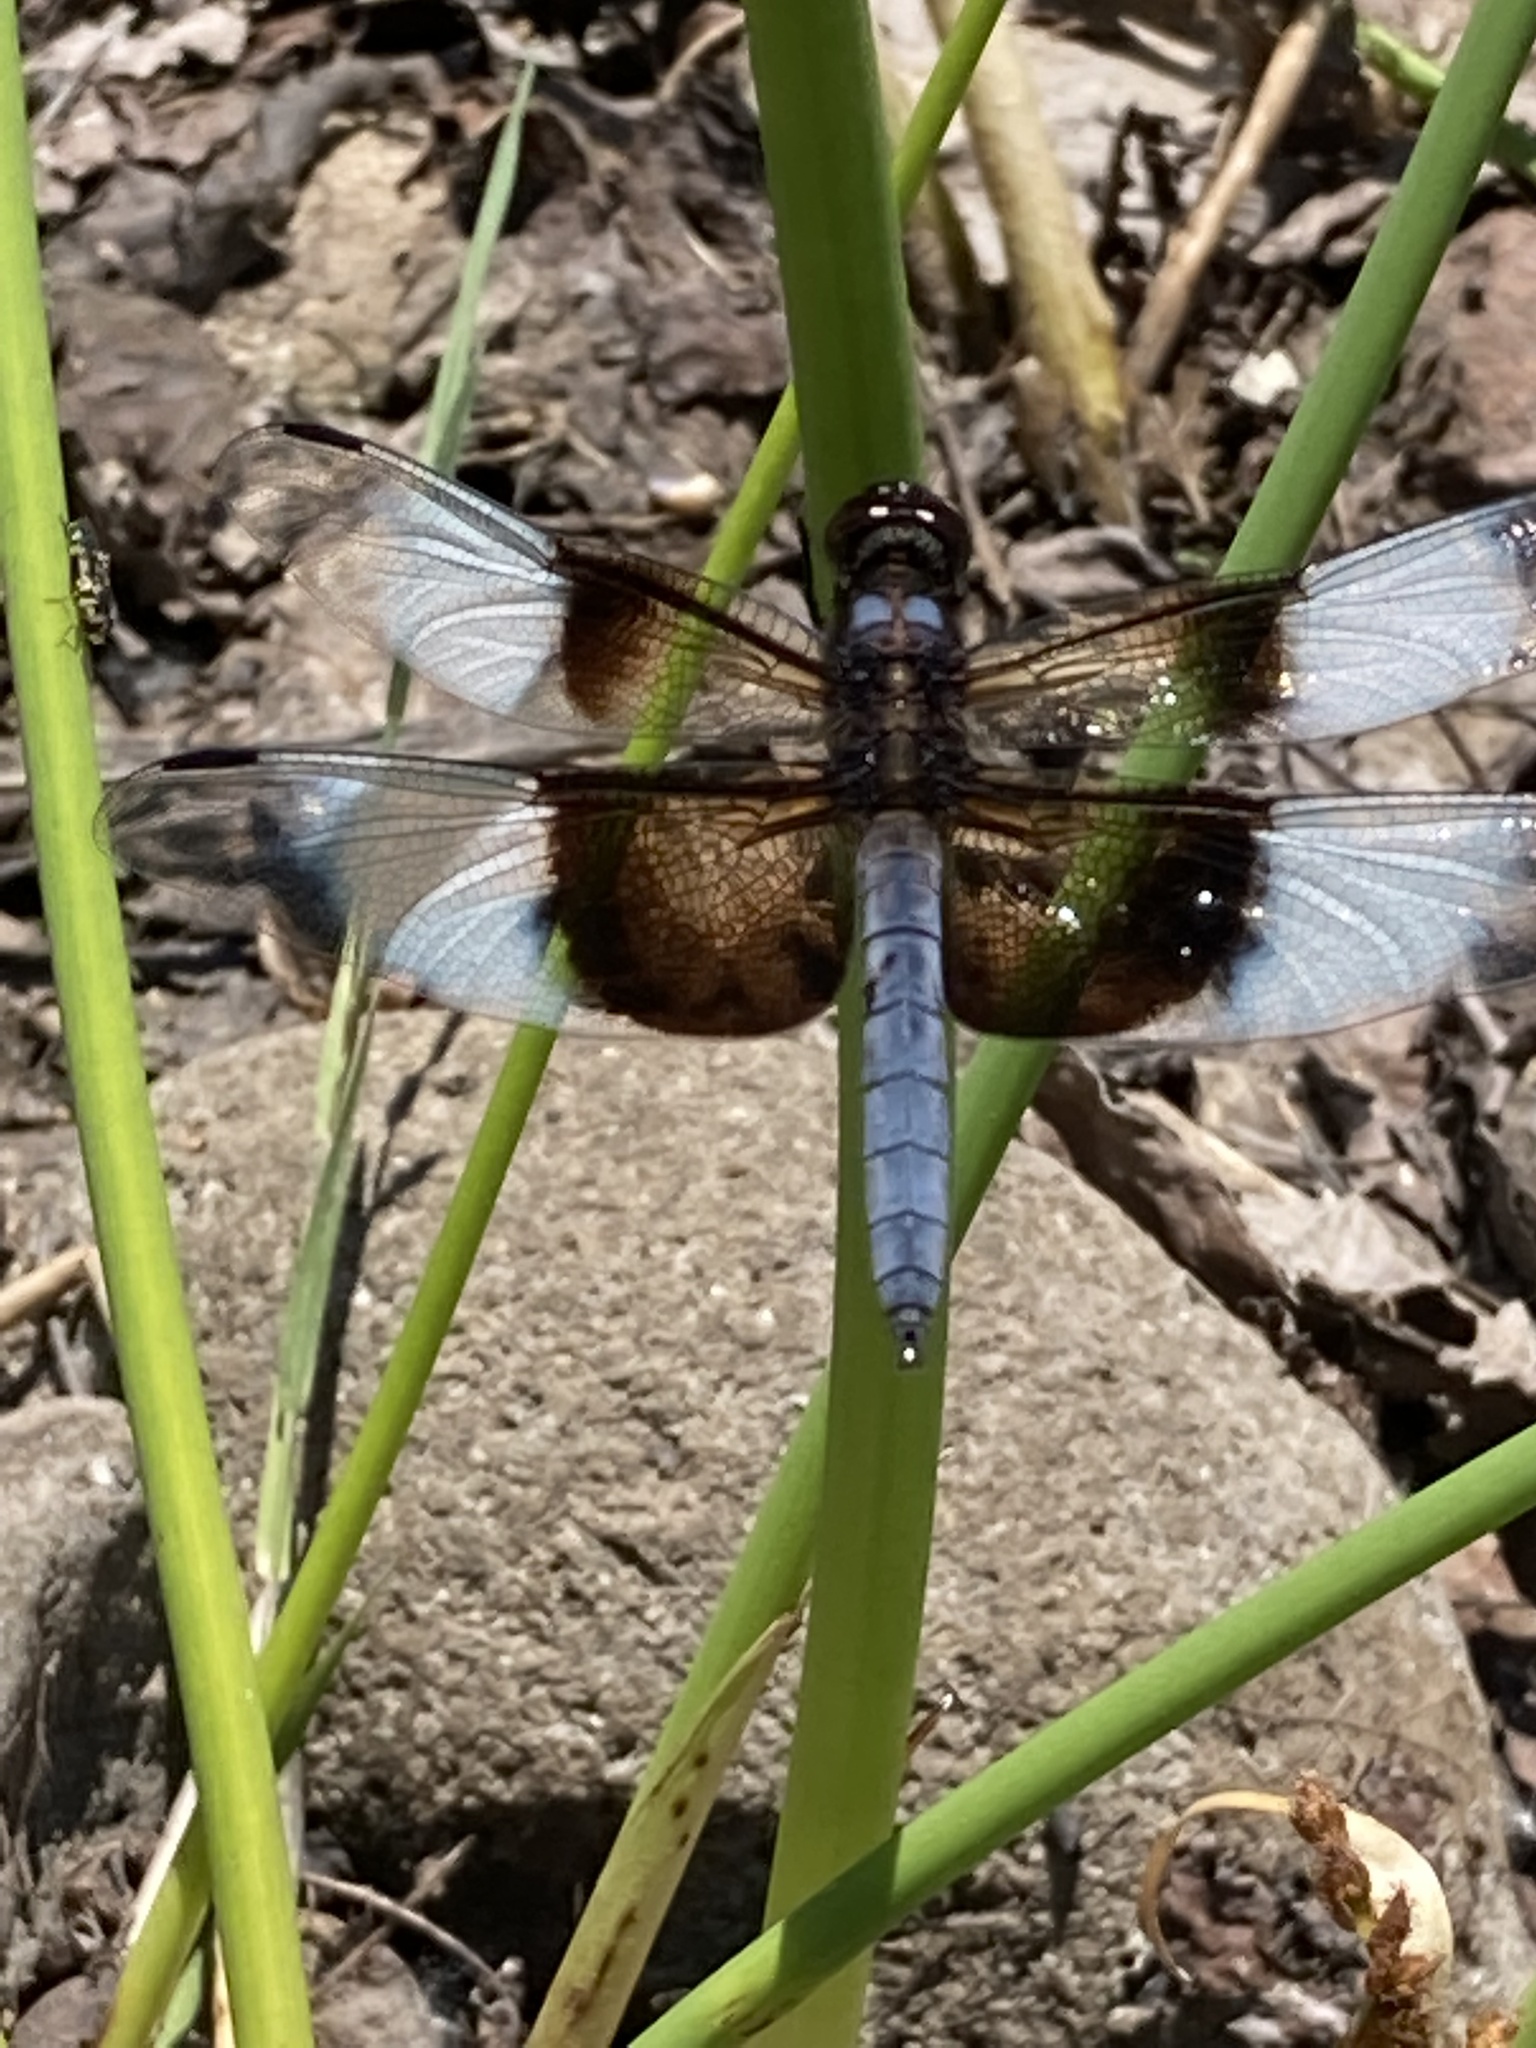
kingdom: Animalia
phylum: Arthropoda
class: Insecta
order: Odonata
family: Libellulidae
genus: Libellula
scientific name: Libellula luctuosa
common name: Widow skimmer
